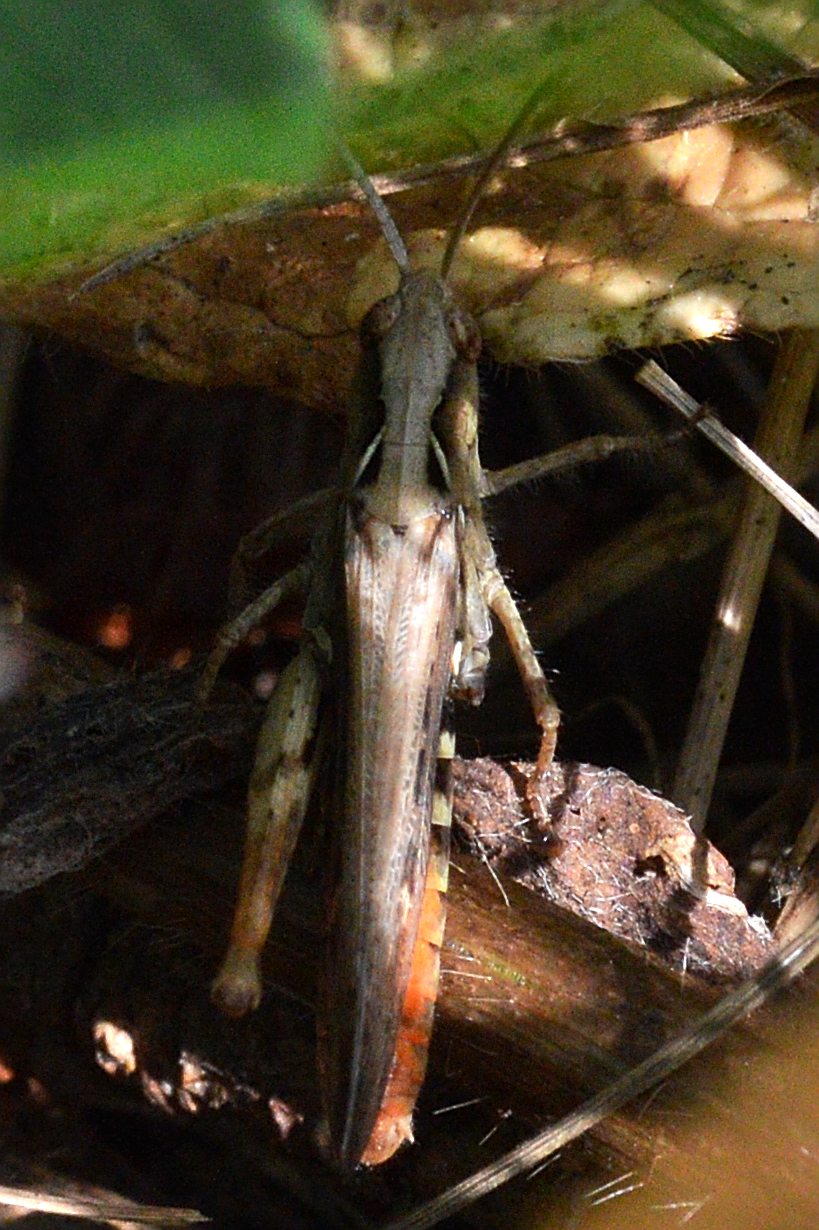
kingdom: Animalia
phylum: Arthropoda
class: Insecta
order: Orthoptera
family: Acrididae
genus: Chorthippus
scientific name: Chorthippus brunneus
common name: Field grasshopper
